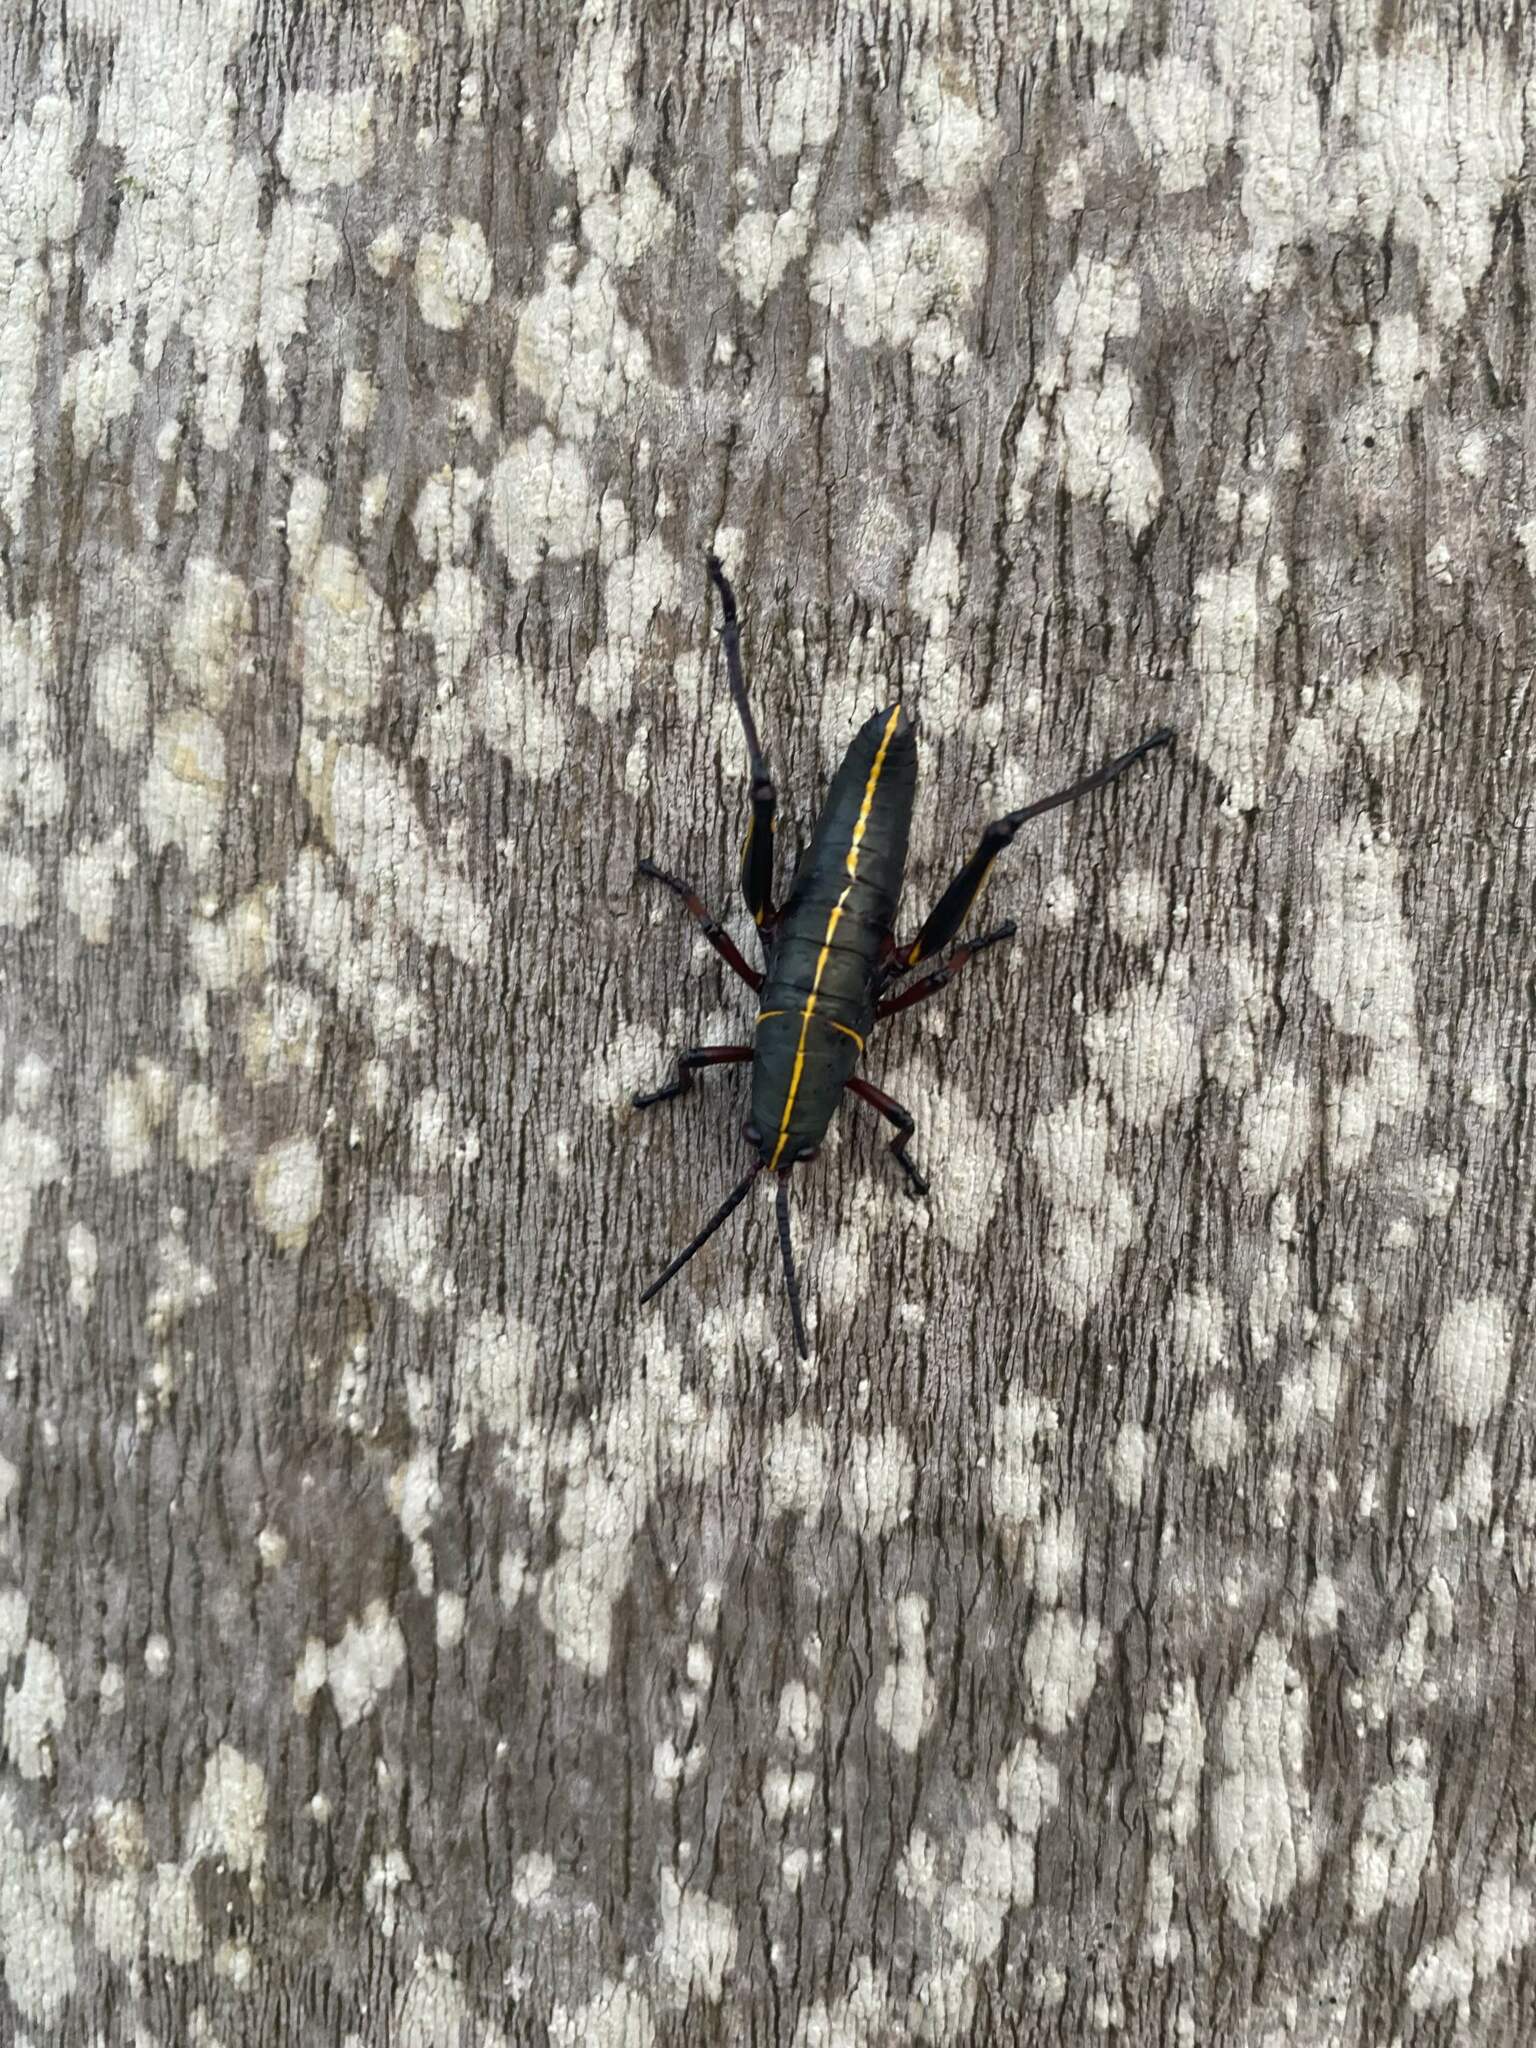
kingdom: Animalia
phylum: Arthropoda
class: Insecta
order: Orthoptera
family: Romaleidae
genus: Romalea
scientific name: Romalea microptera
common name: Eastern lubber grasshopper
